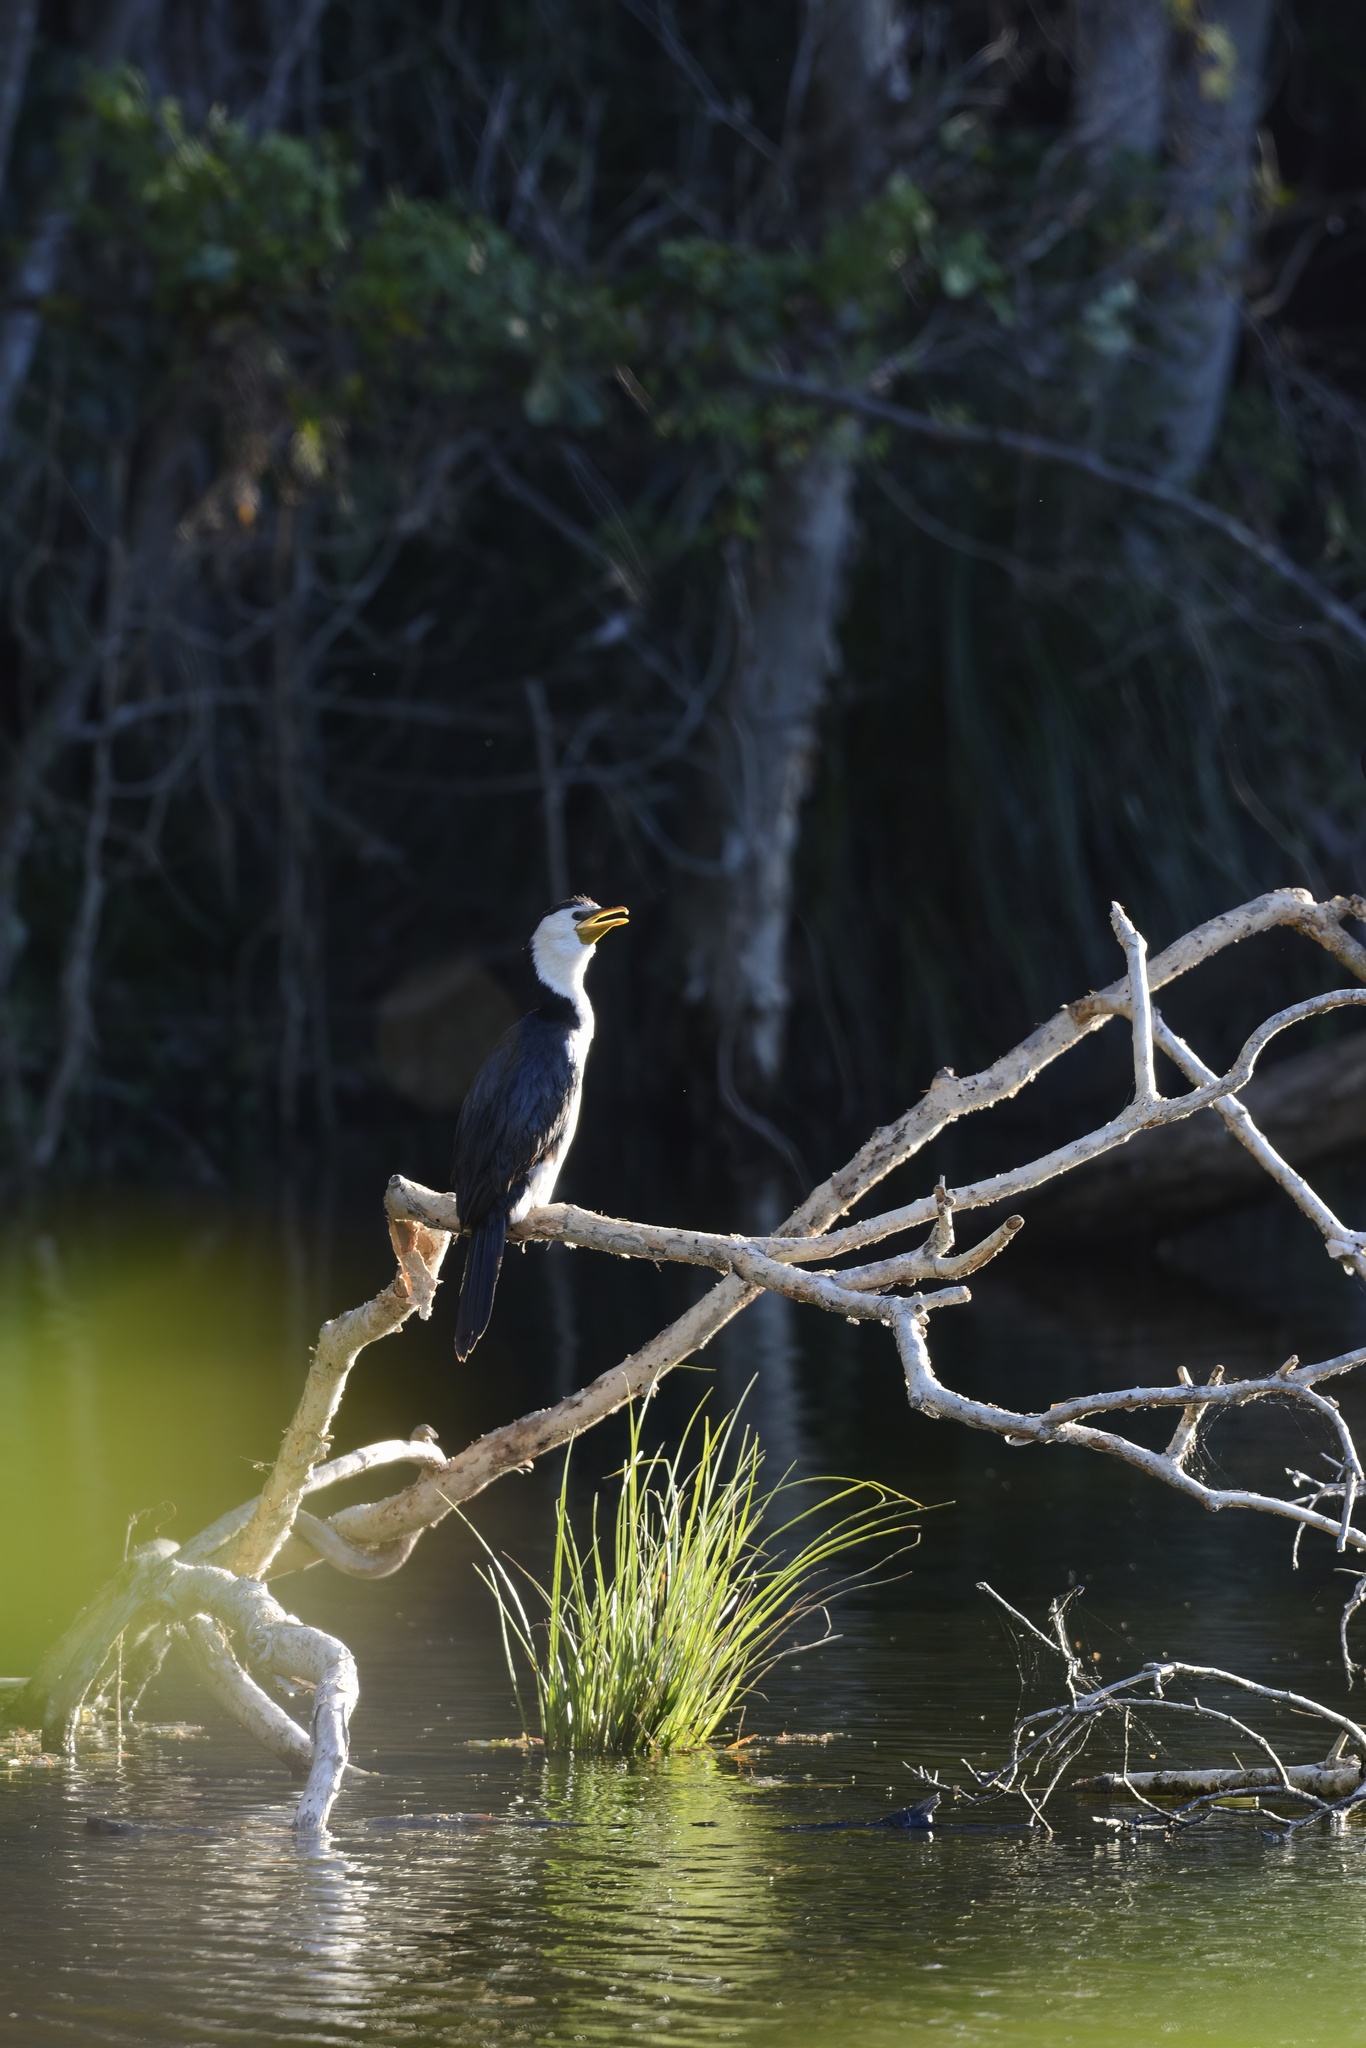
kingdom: Animalia
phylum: Chordata
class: Aves
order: Suliformes
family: Phalacrocoracidae
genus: Microcarbo
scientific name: Microcarbo melanoleucos
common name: Little pied cormorant
